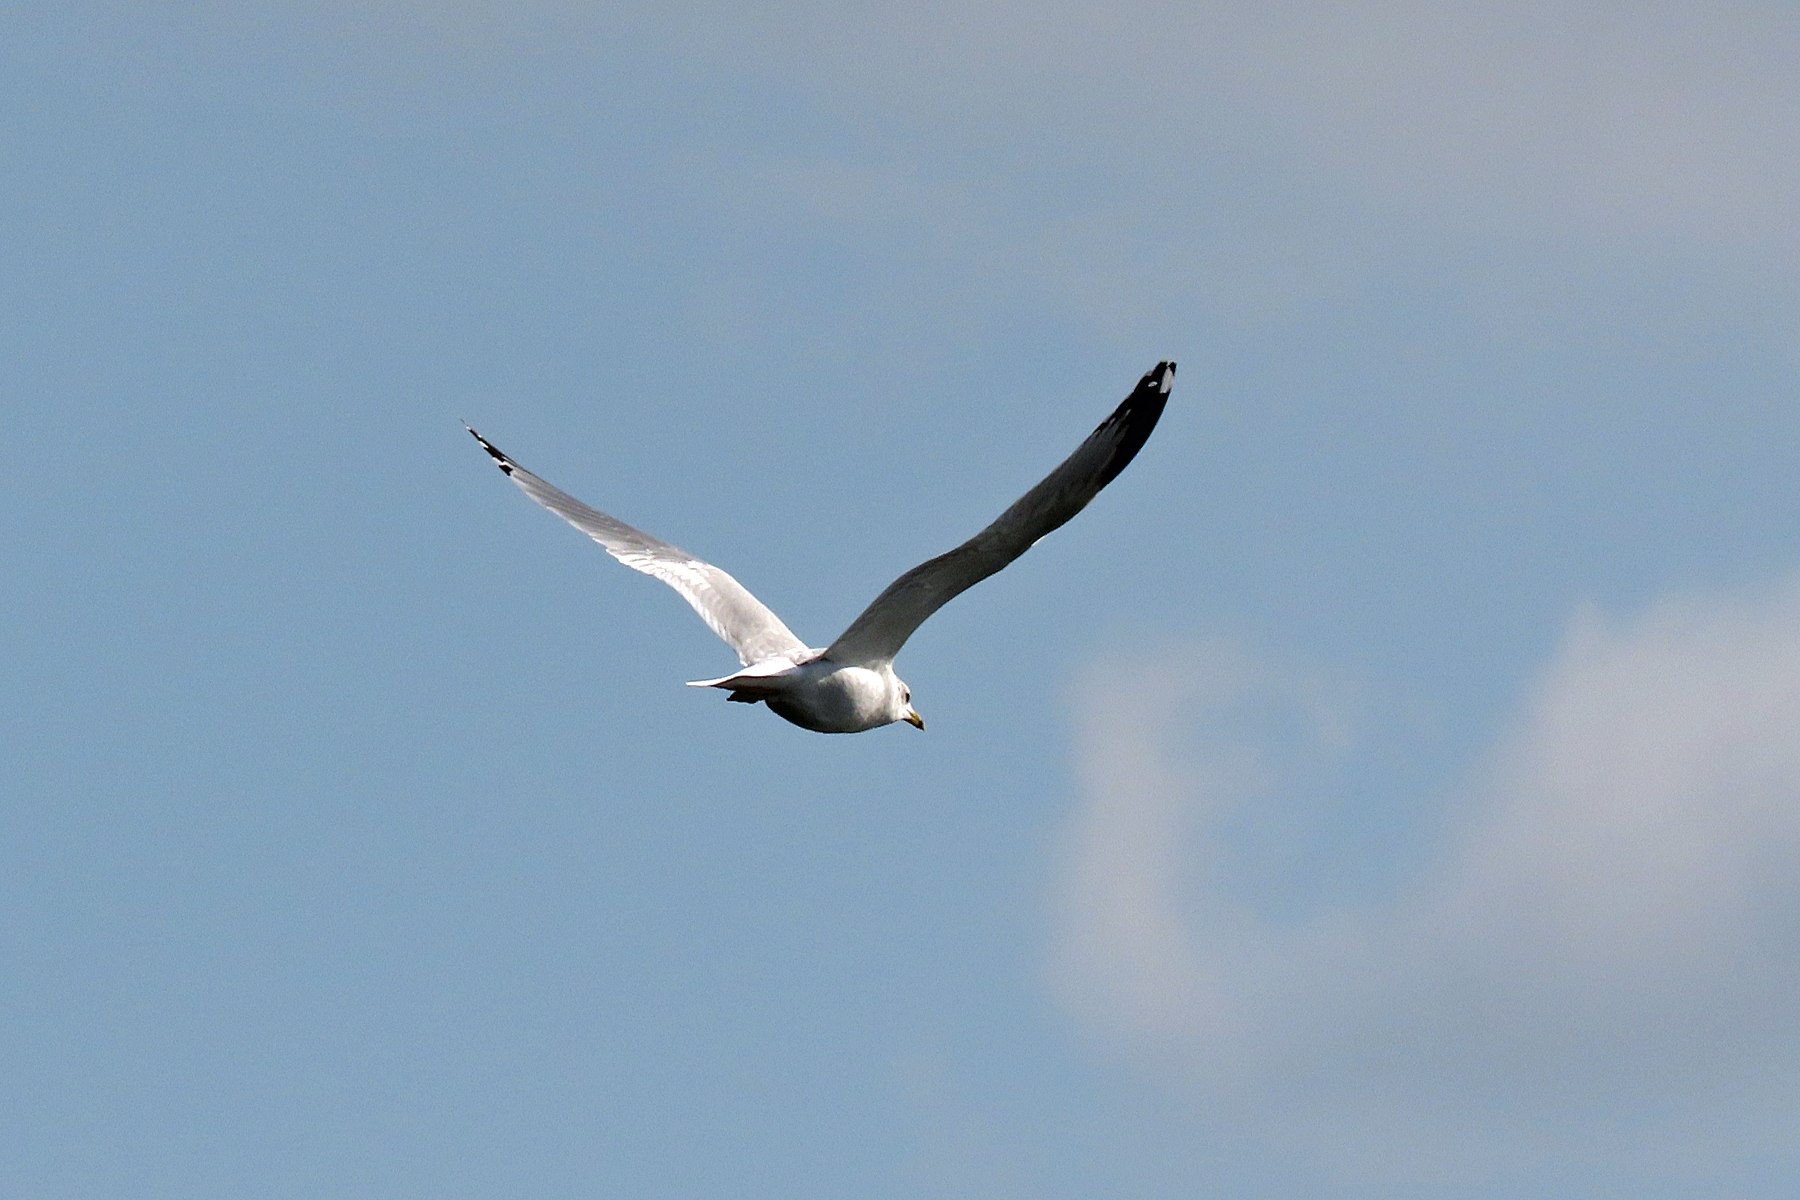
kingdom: Animalia
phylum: Chordata
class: Aves
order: Charadriiformes
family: Laridae
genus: Larus
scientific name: Larus delawarensis
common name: Ring-billed gull
